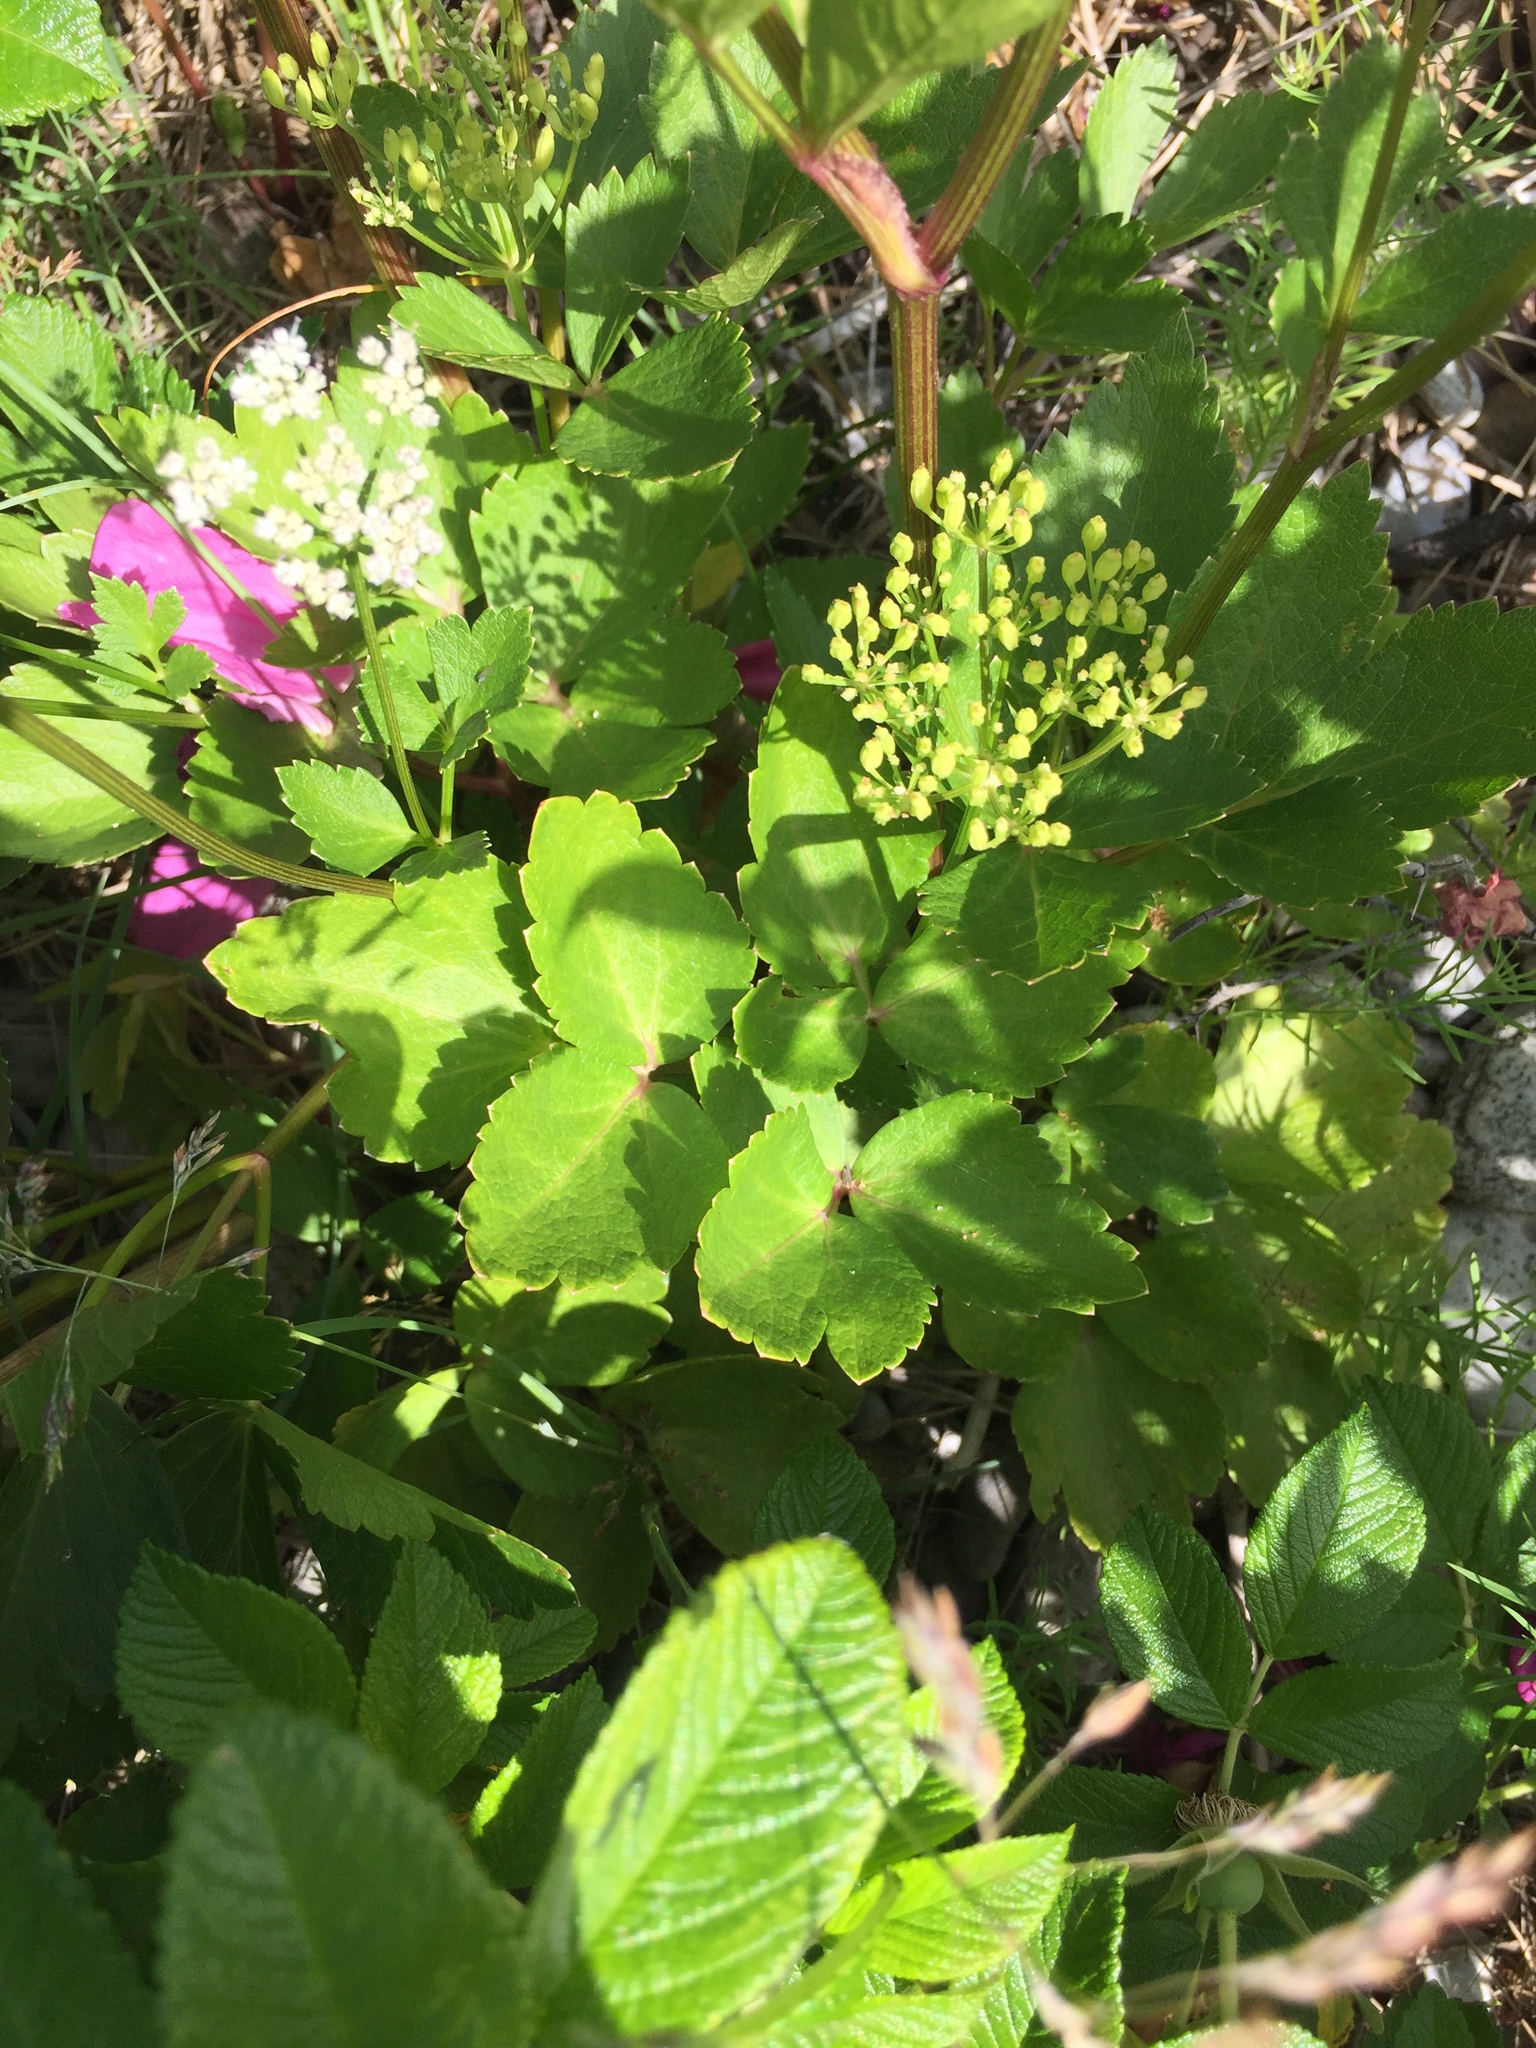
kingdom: Plantae
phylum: Tracheophyta
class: Magnoliopsida
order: Apiales
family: Apiaceae
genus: Ligusticum
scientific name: Ligusticum scothicum
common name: Beach lovage
